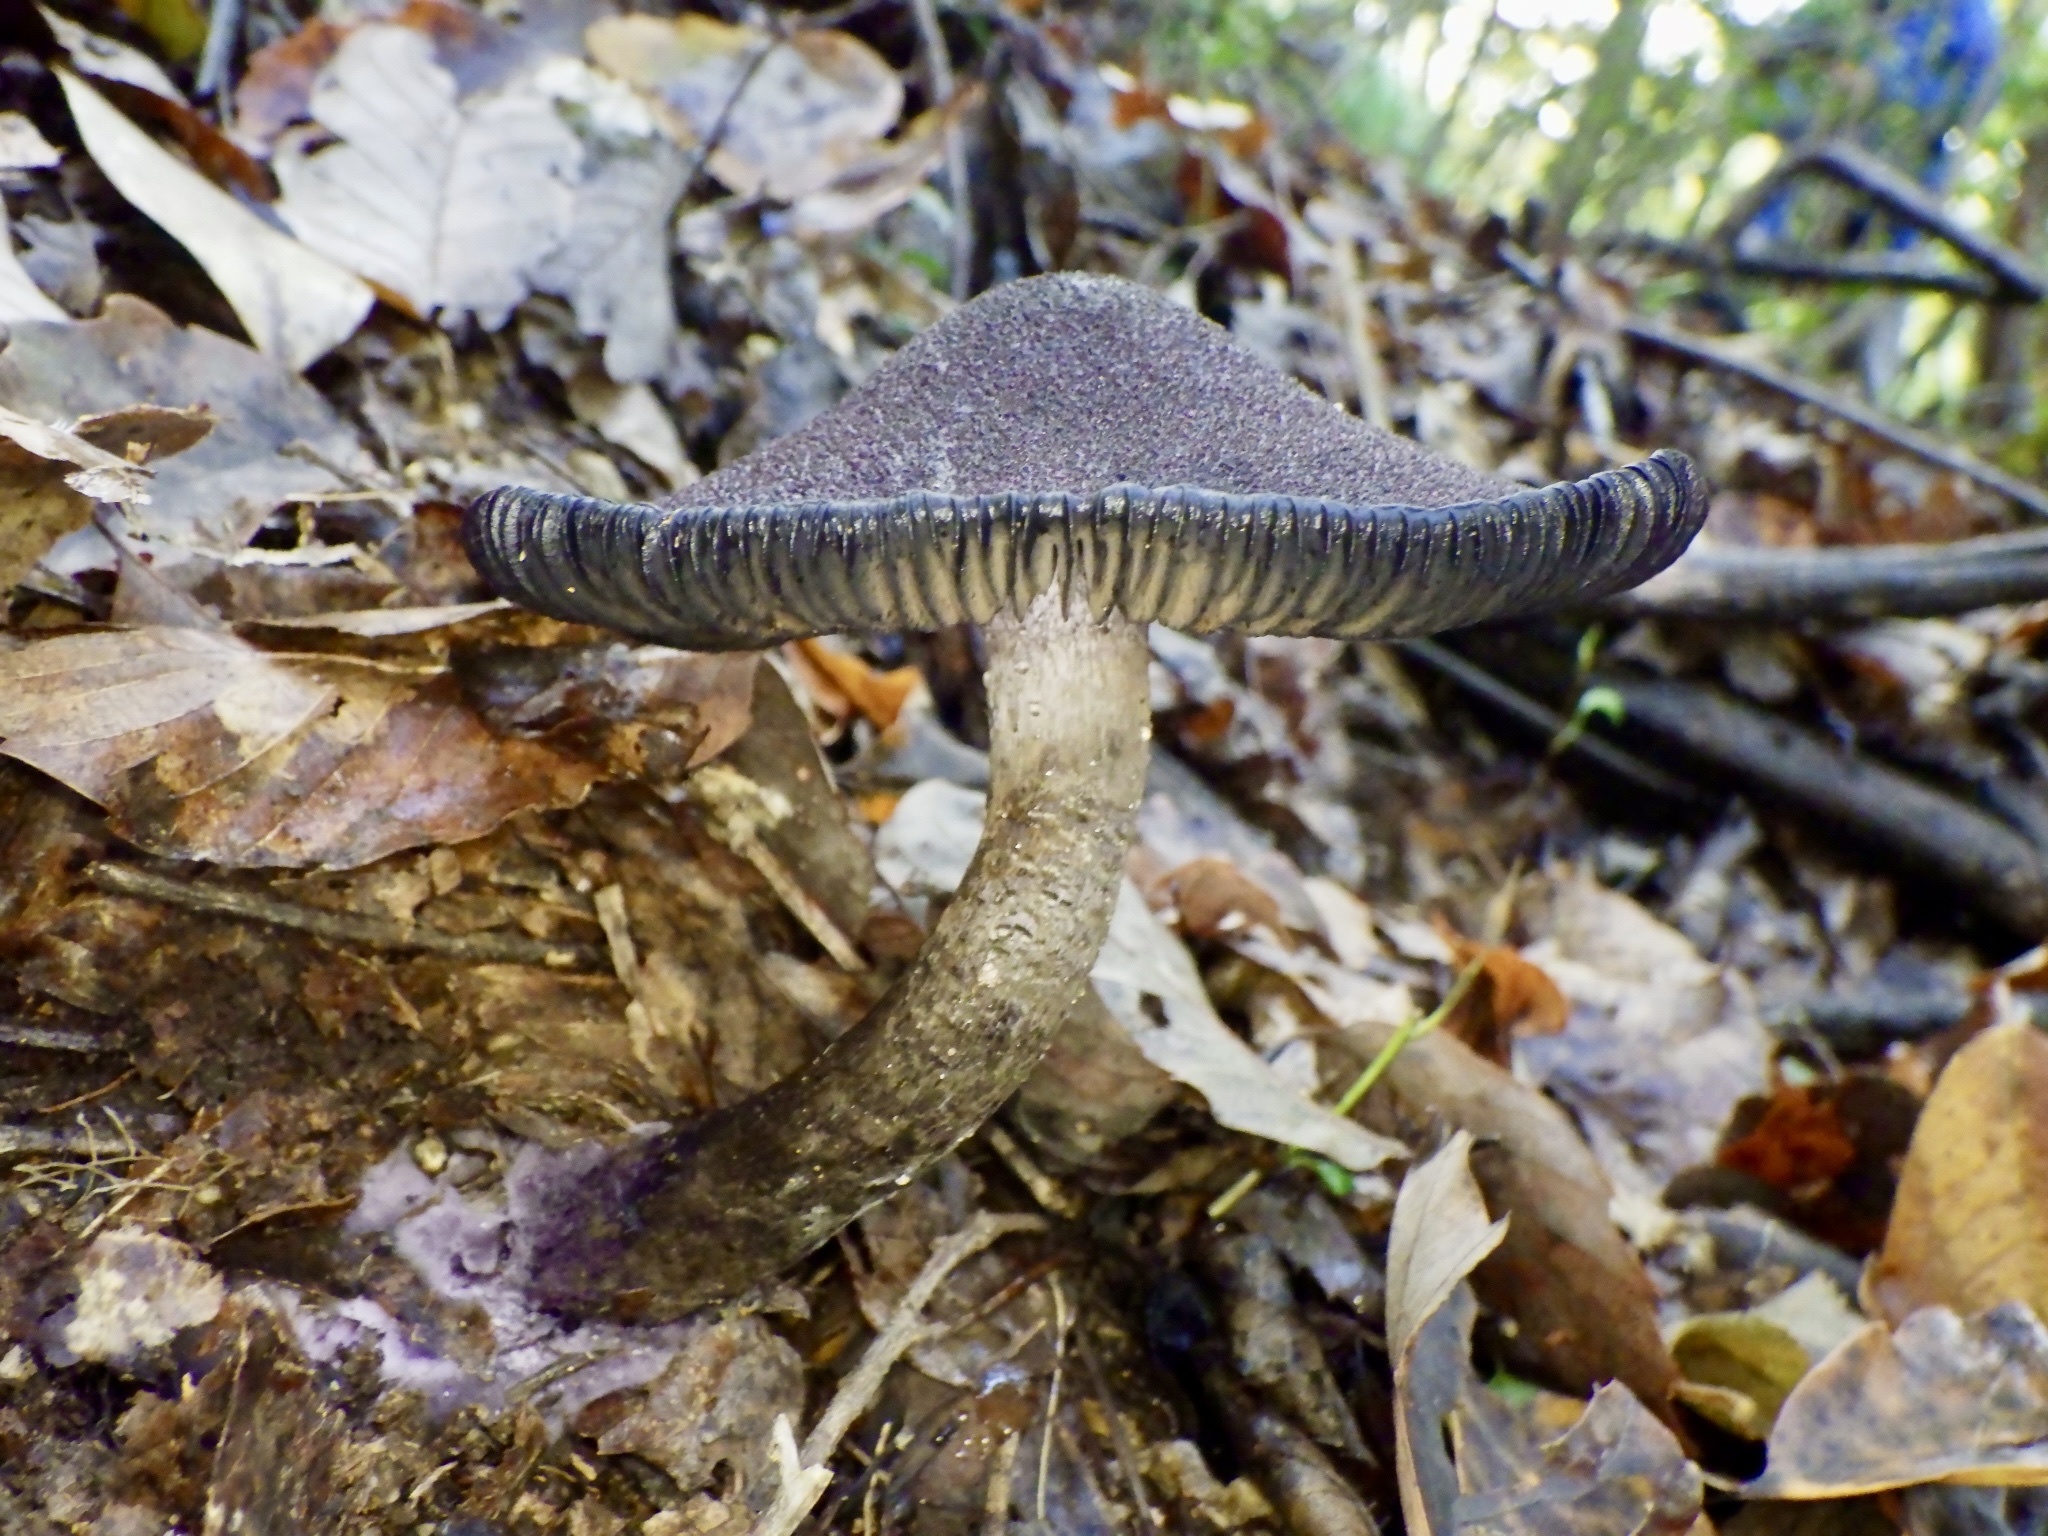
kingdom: Fungi
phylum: Basidiomycota
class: Agaricomycetes
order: Agaricales
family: Cortinariaceae
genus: Cortinarius
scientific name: Cortinarius violaceus
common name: Violet webcap
